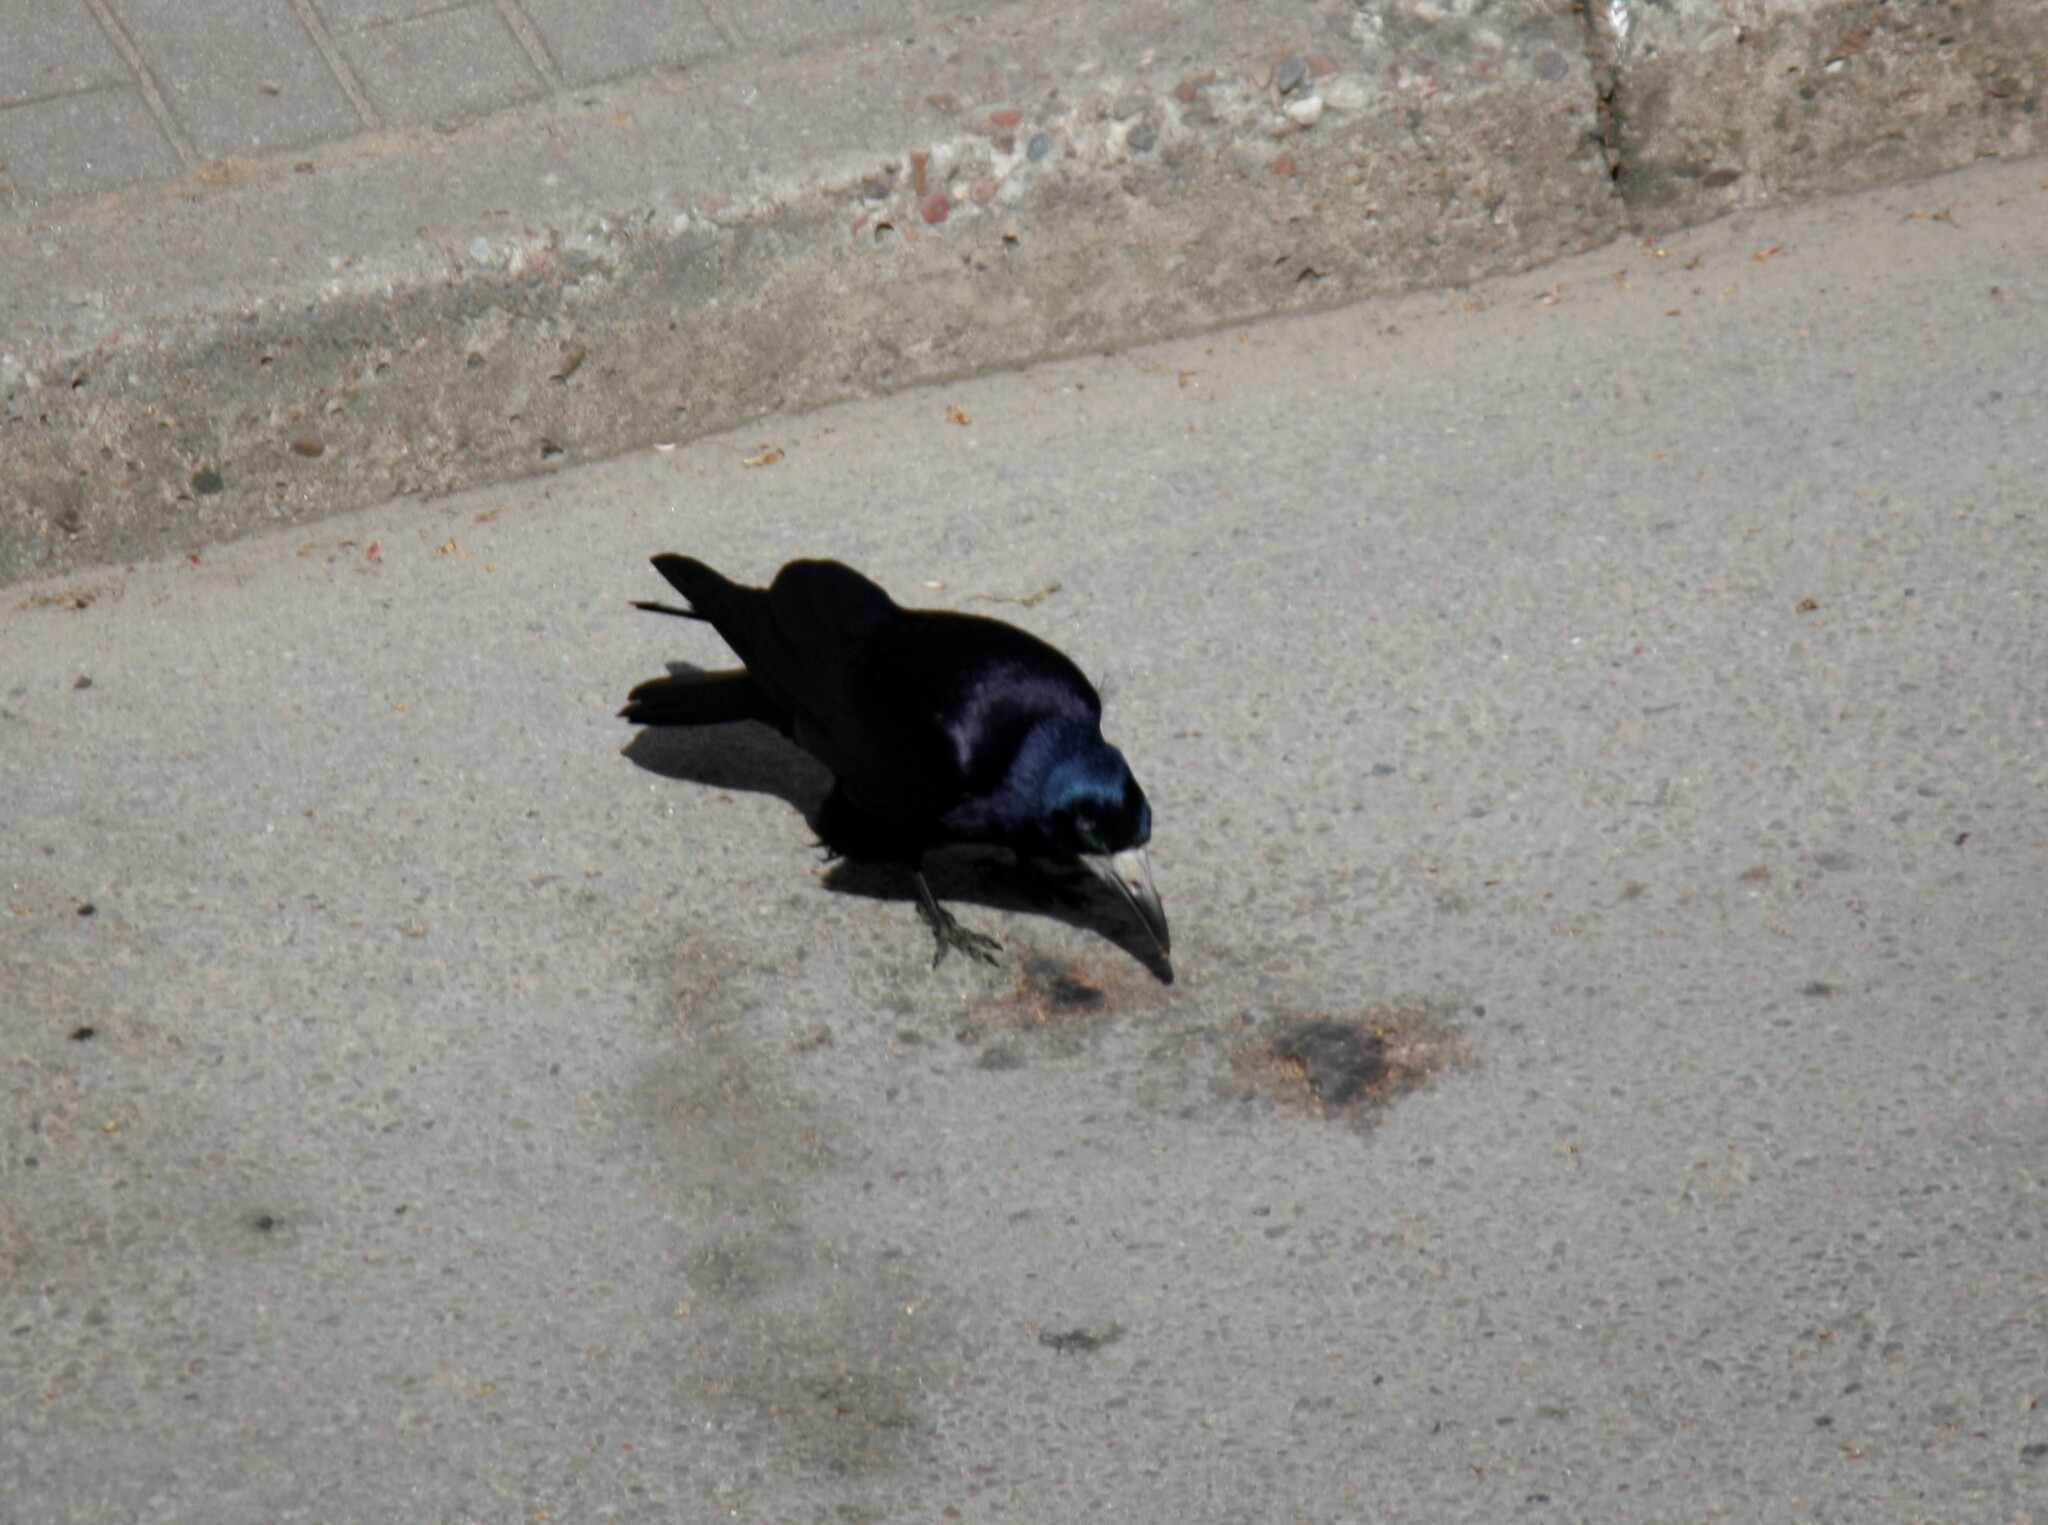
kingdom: Animalia
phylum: Chordata
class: Aves
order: Passeriformes
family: Corvidae
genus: Corvus
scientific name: Corvus frugilegus
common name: Rook
